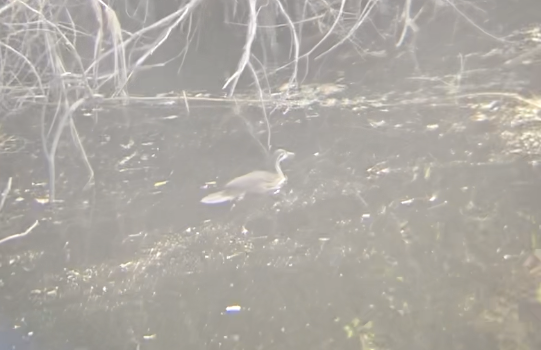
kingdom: Animalia
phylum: Chordata
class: Aves
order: Gruiformes
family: Heliornithidae
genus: Podica
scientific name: Podica senegalensis
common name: African finfoot
